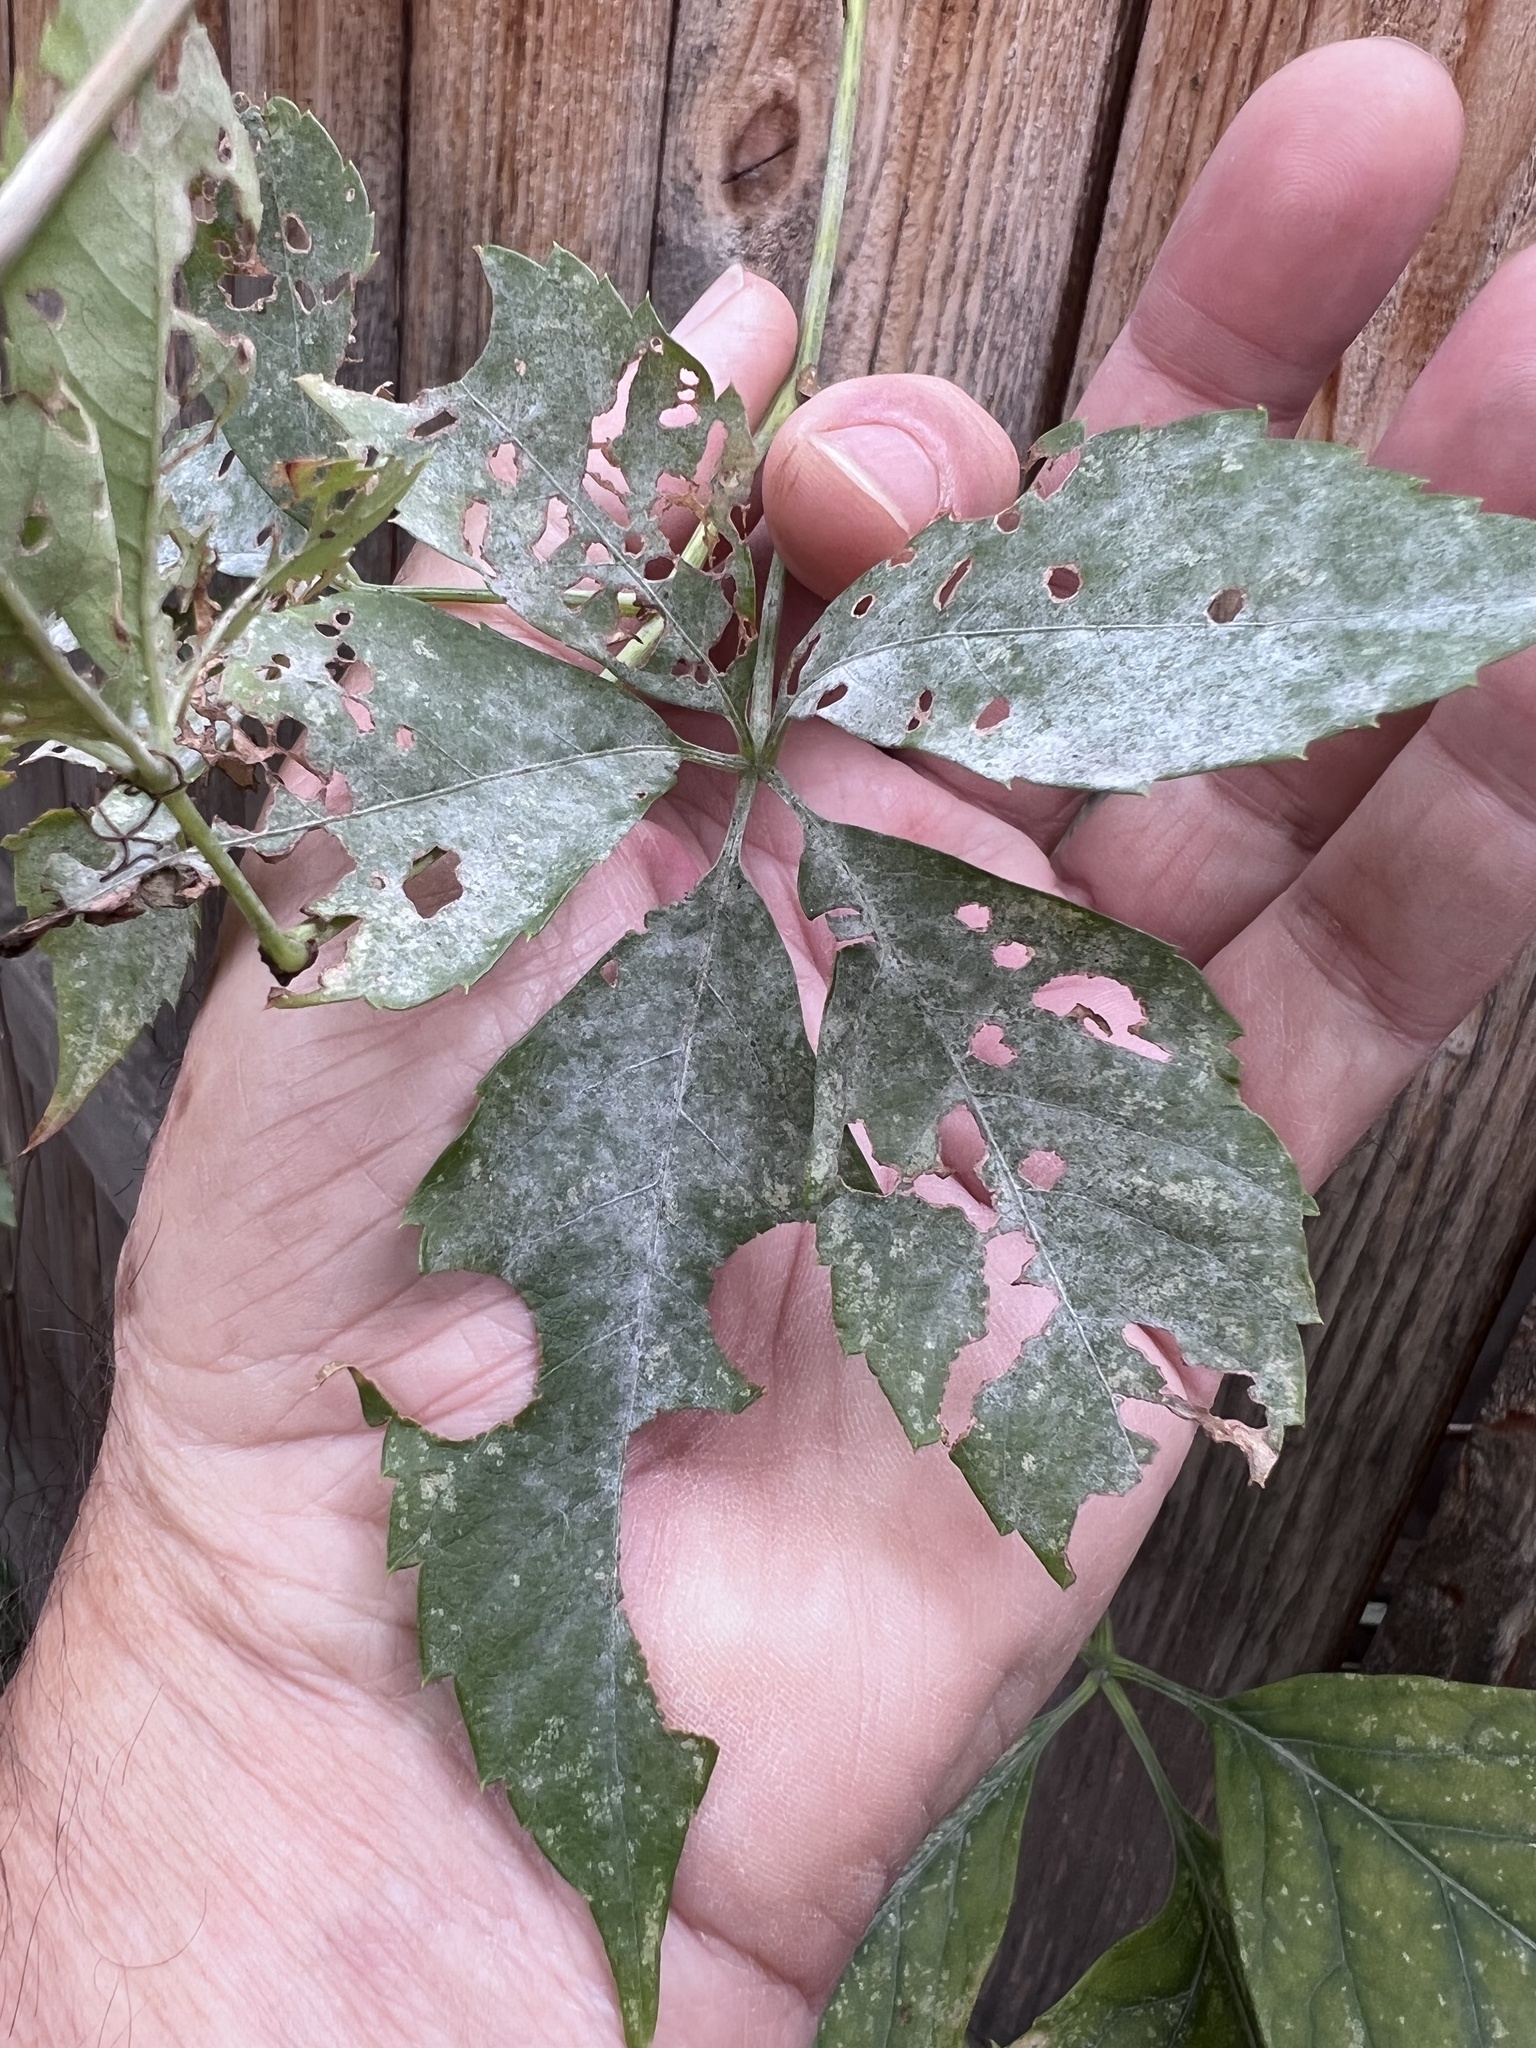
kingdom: Fungi
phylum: Ascomycota
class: Leotiomycetes
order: Helotiales
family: Erysiphaceae
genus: Erysiphe
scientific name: Erysiphe
